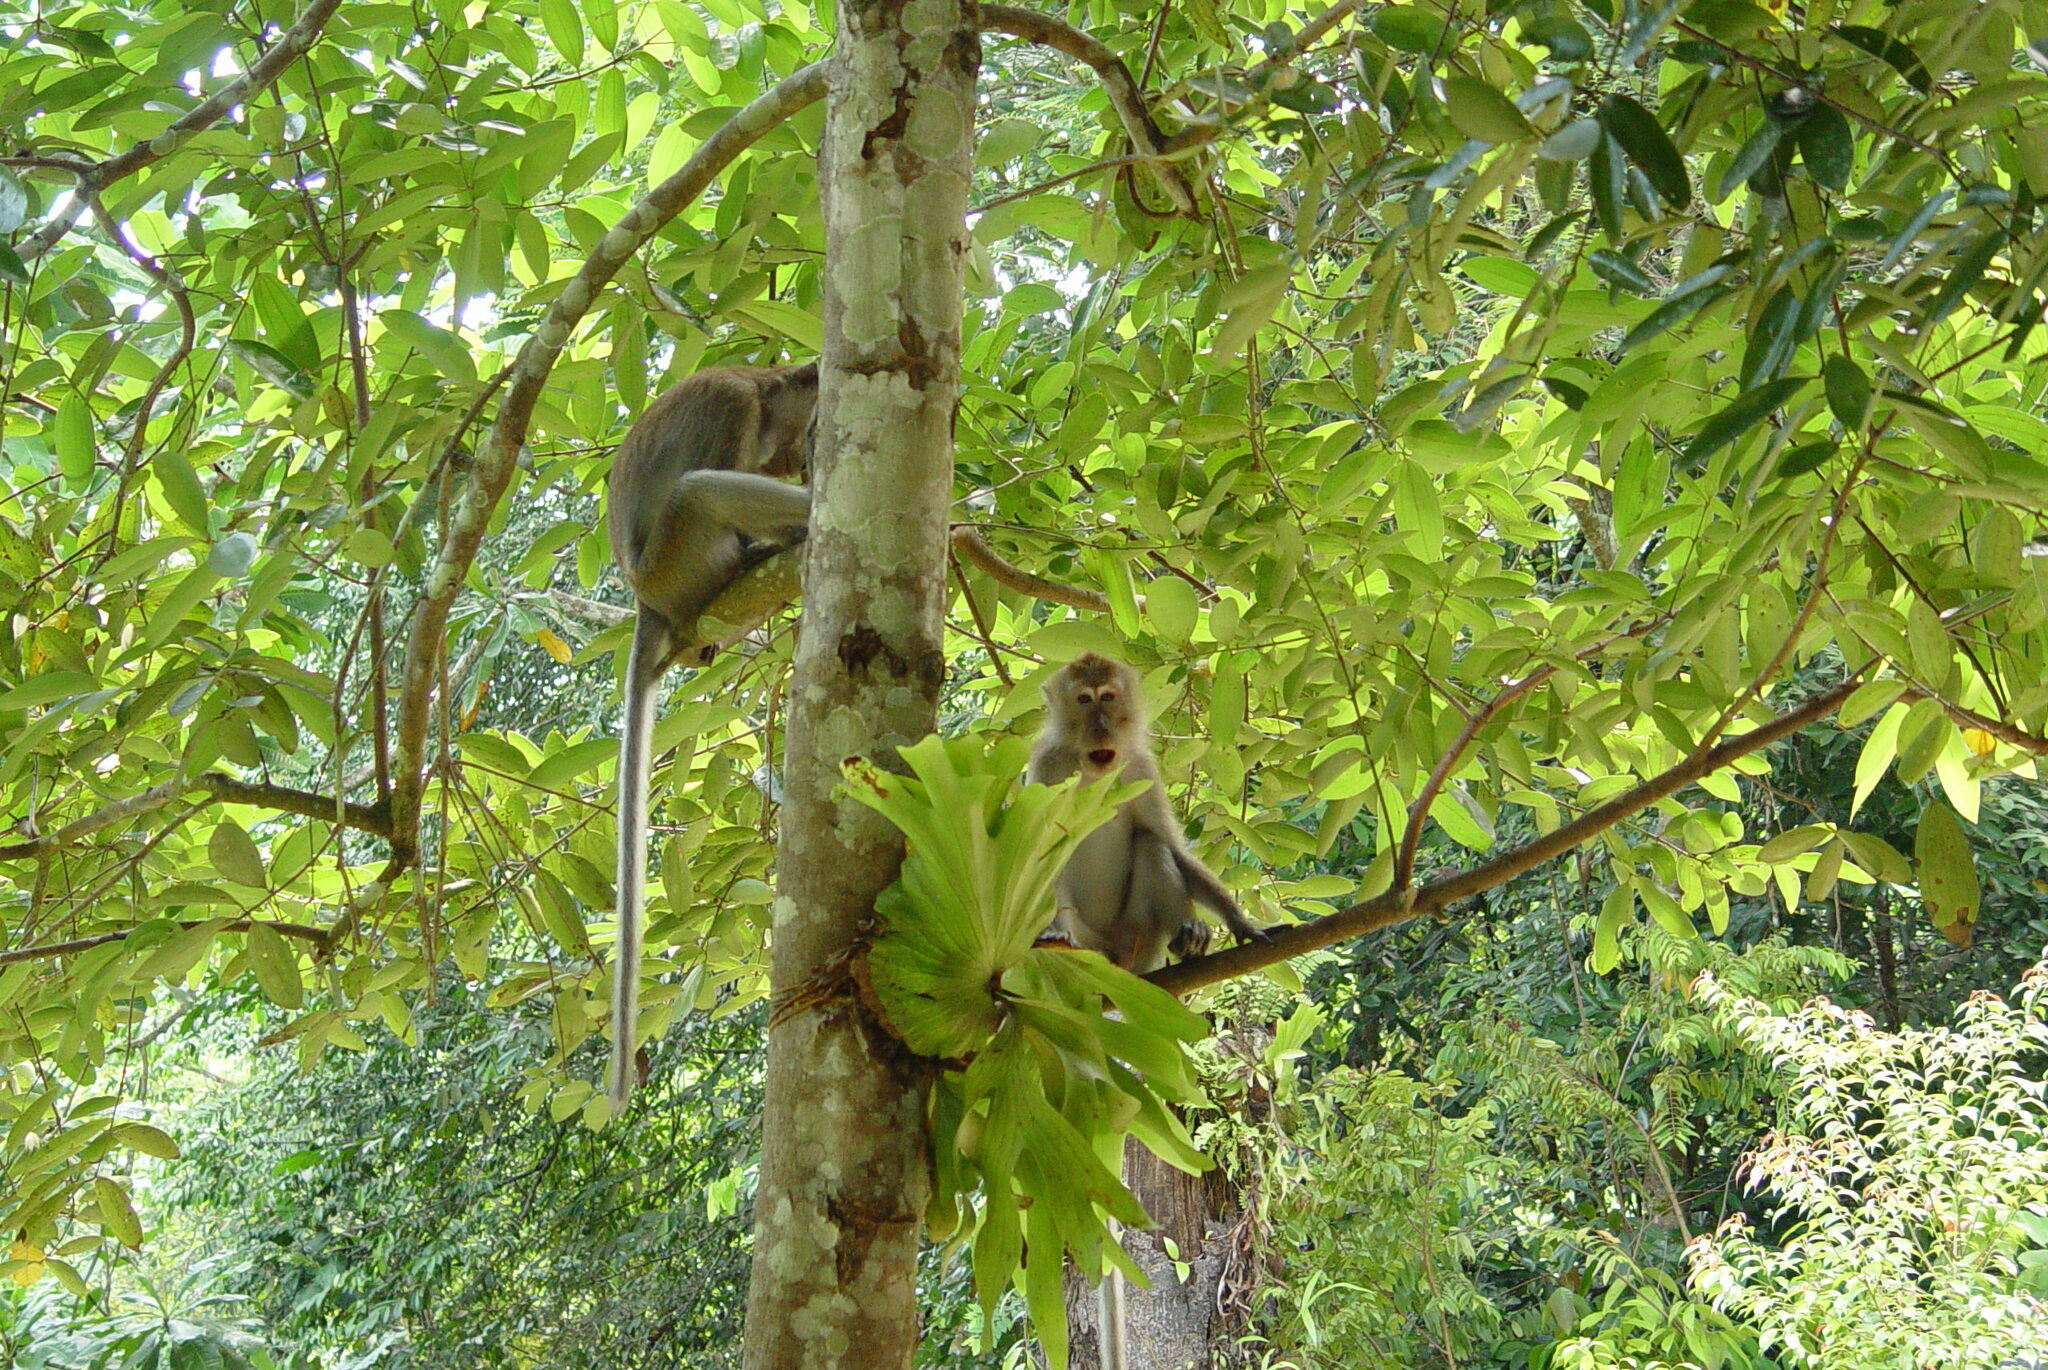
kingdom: Animalia
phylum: Chordata
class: Mammalia
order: Primates
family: Cercopithecidae
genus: Macaca
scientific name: Macaca fascicularis
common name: Crab-eating macaque
